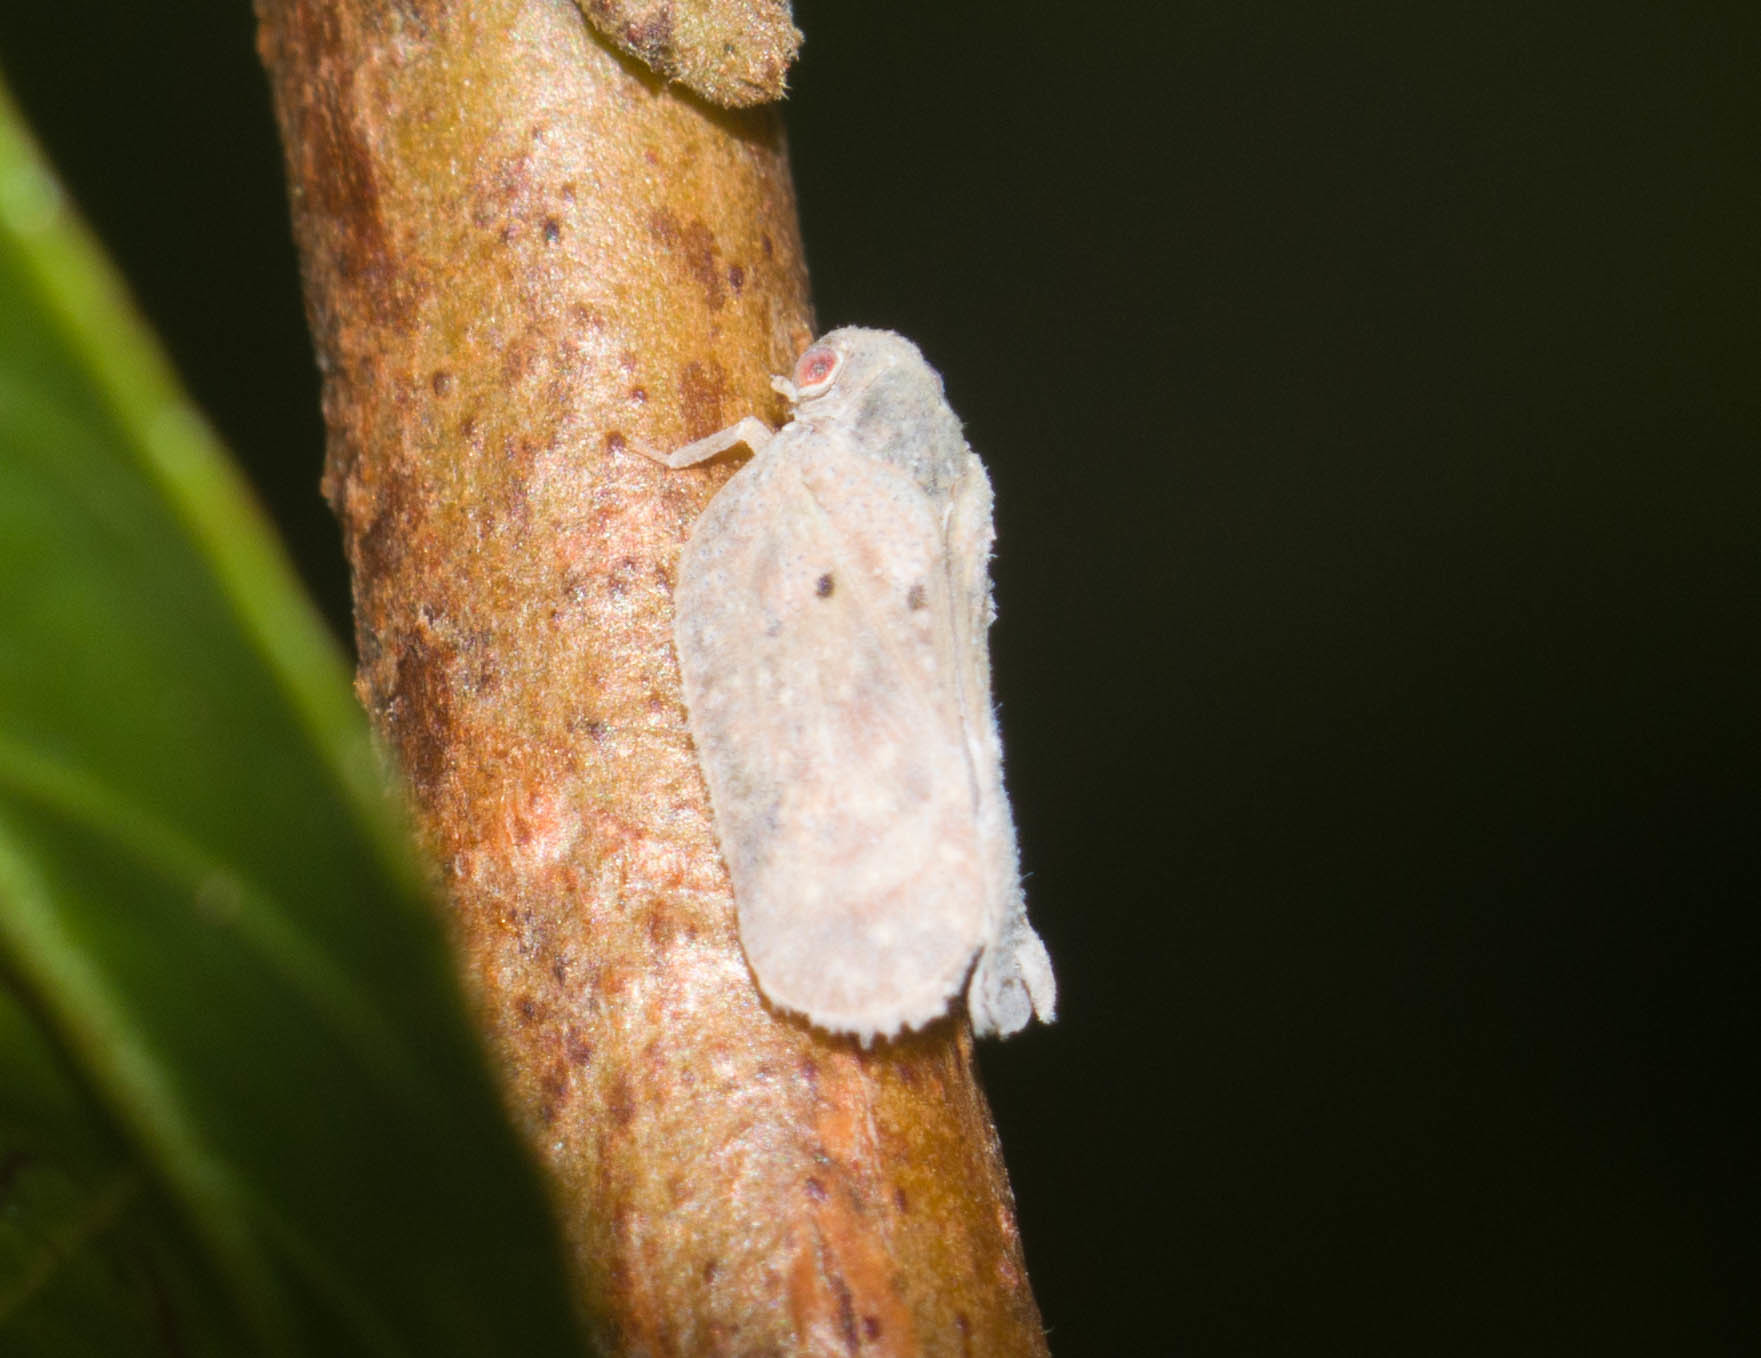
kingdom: Animalia
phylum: Arthropoda
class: Insecta
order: Hemiptera
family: Flatidae
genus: Melormenis
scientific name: Melormenis basalis
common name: Puerto rican planthopper
